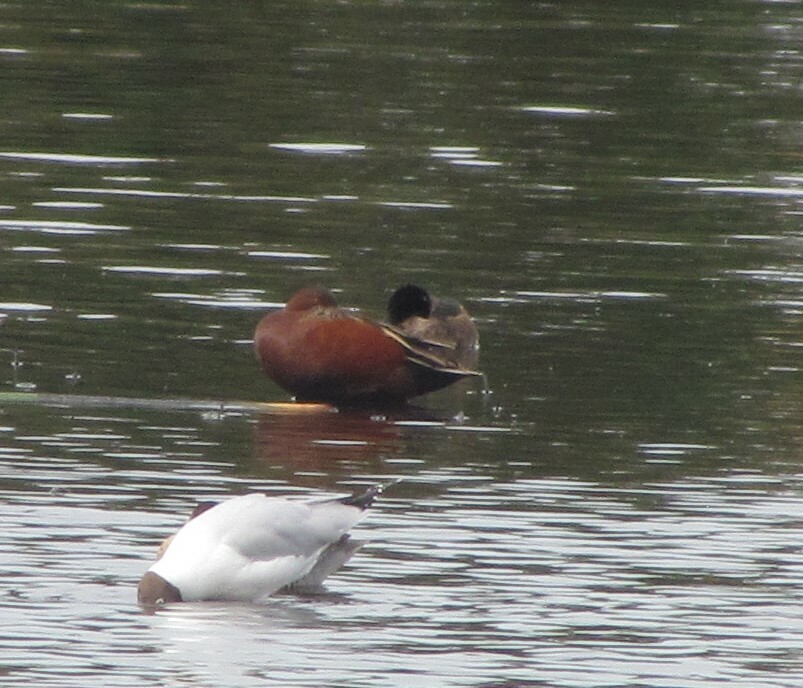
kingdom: Animalia
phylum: Chordata
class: Aves
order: Anseriformes
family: Anatidae
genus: Spatula
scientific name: Spatula cyanoptera
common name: Cinnamon teal
